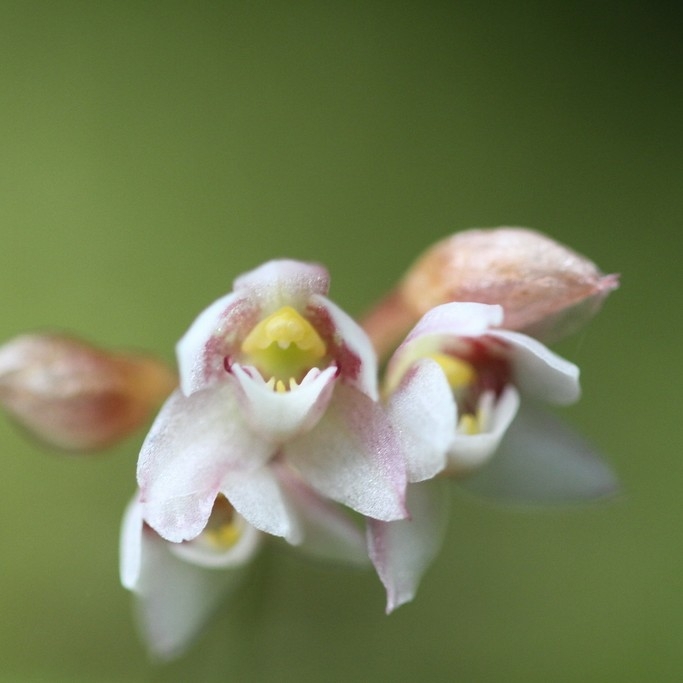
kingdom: Plantae
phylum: Tracheophyta
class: Liliopsida
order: Asparagales
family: Orchidaceae
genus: Cheiradenia
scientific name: Cheiradenia cuspidata
